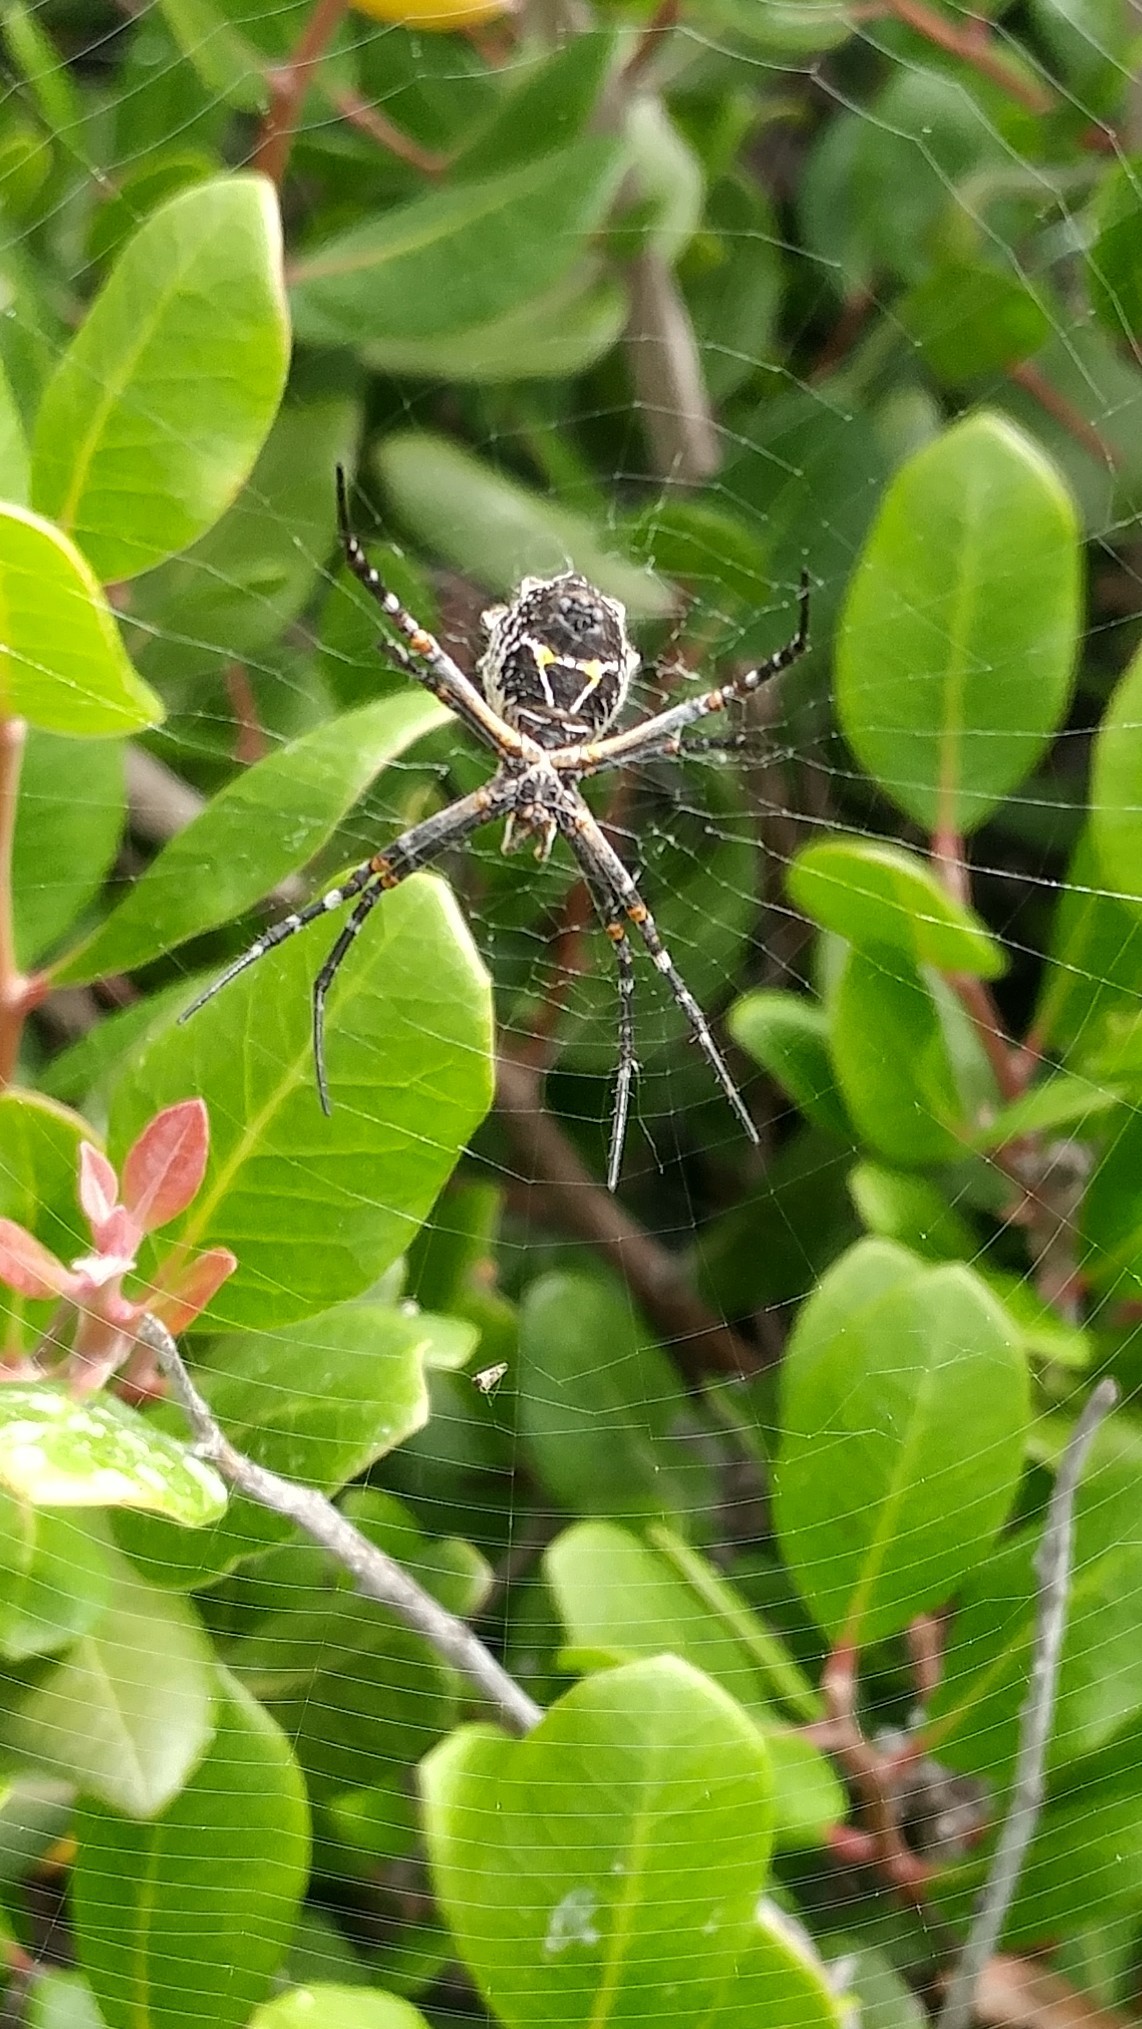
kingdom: Animalia
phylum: Arthropoda
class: Arachnida
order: Araneae
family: Araneidae
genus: Argiope
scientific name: Argiope argentata
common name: Orb weavers
